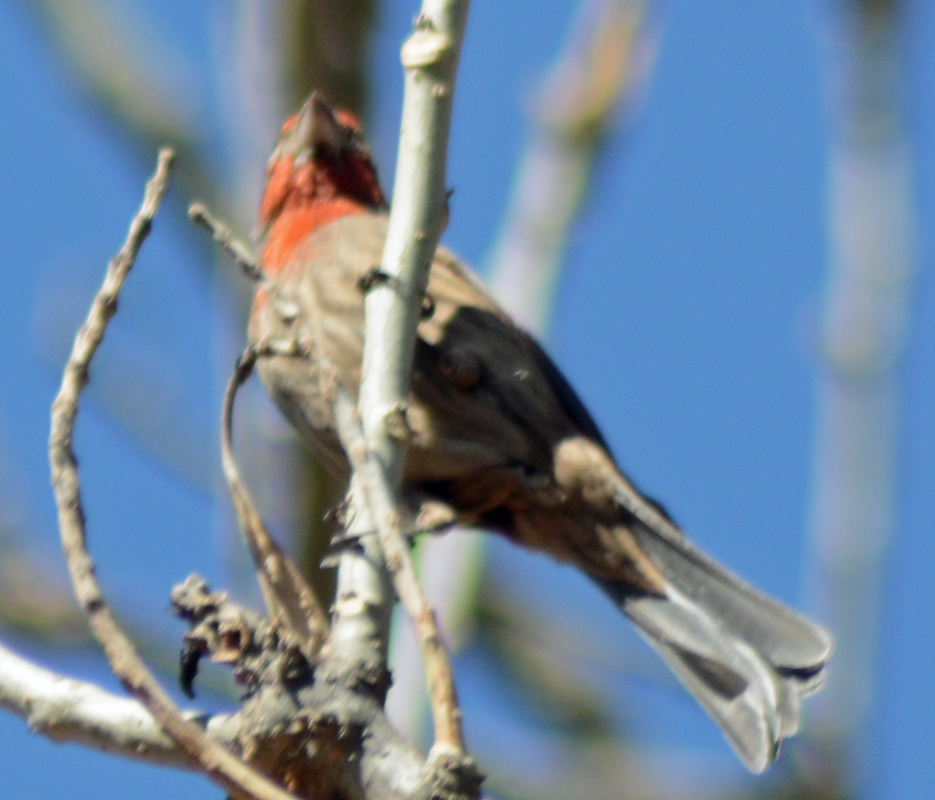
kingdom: Animalia
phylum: Chordata
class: Aves
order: Passeriformes
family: Fringillidae
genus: Haemorhous
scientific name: Haemorhous mexicanus
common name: House finch
